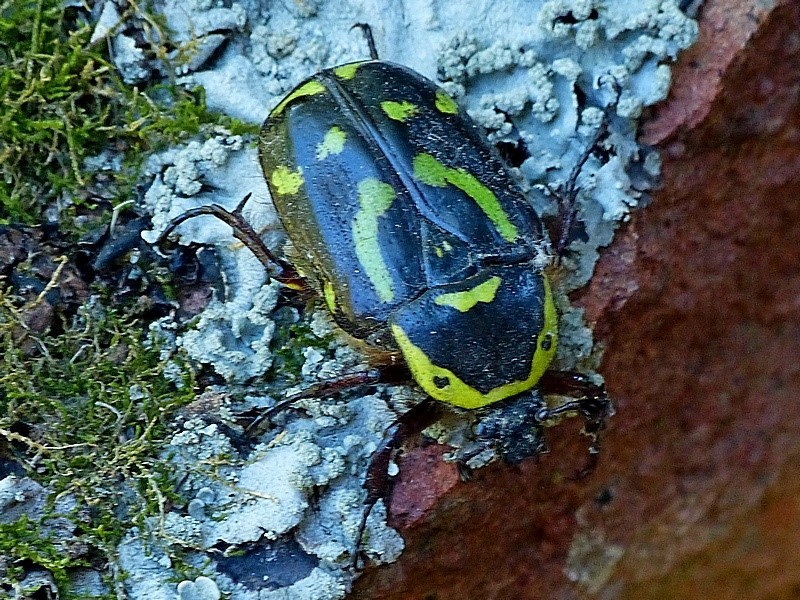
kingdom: Animalia
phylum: Arthropoda
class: Insecta
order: Coleoptera
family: Scarabaeidae
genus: Chlorobapta
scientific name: Chlorobapta frontalis
